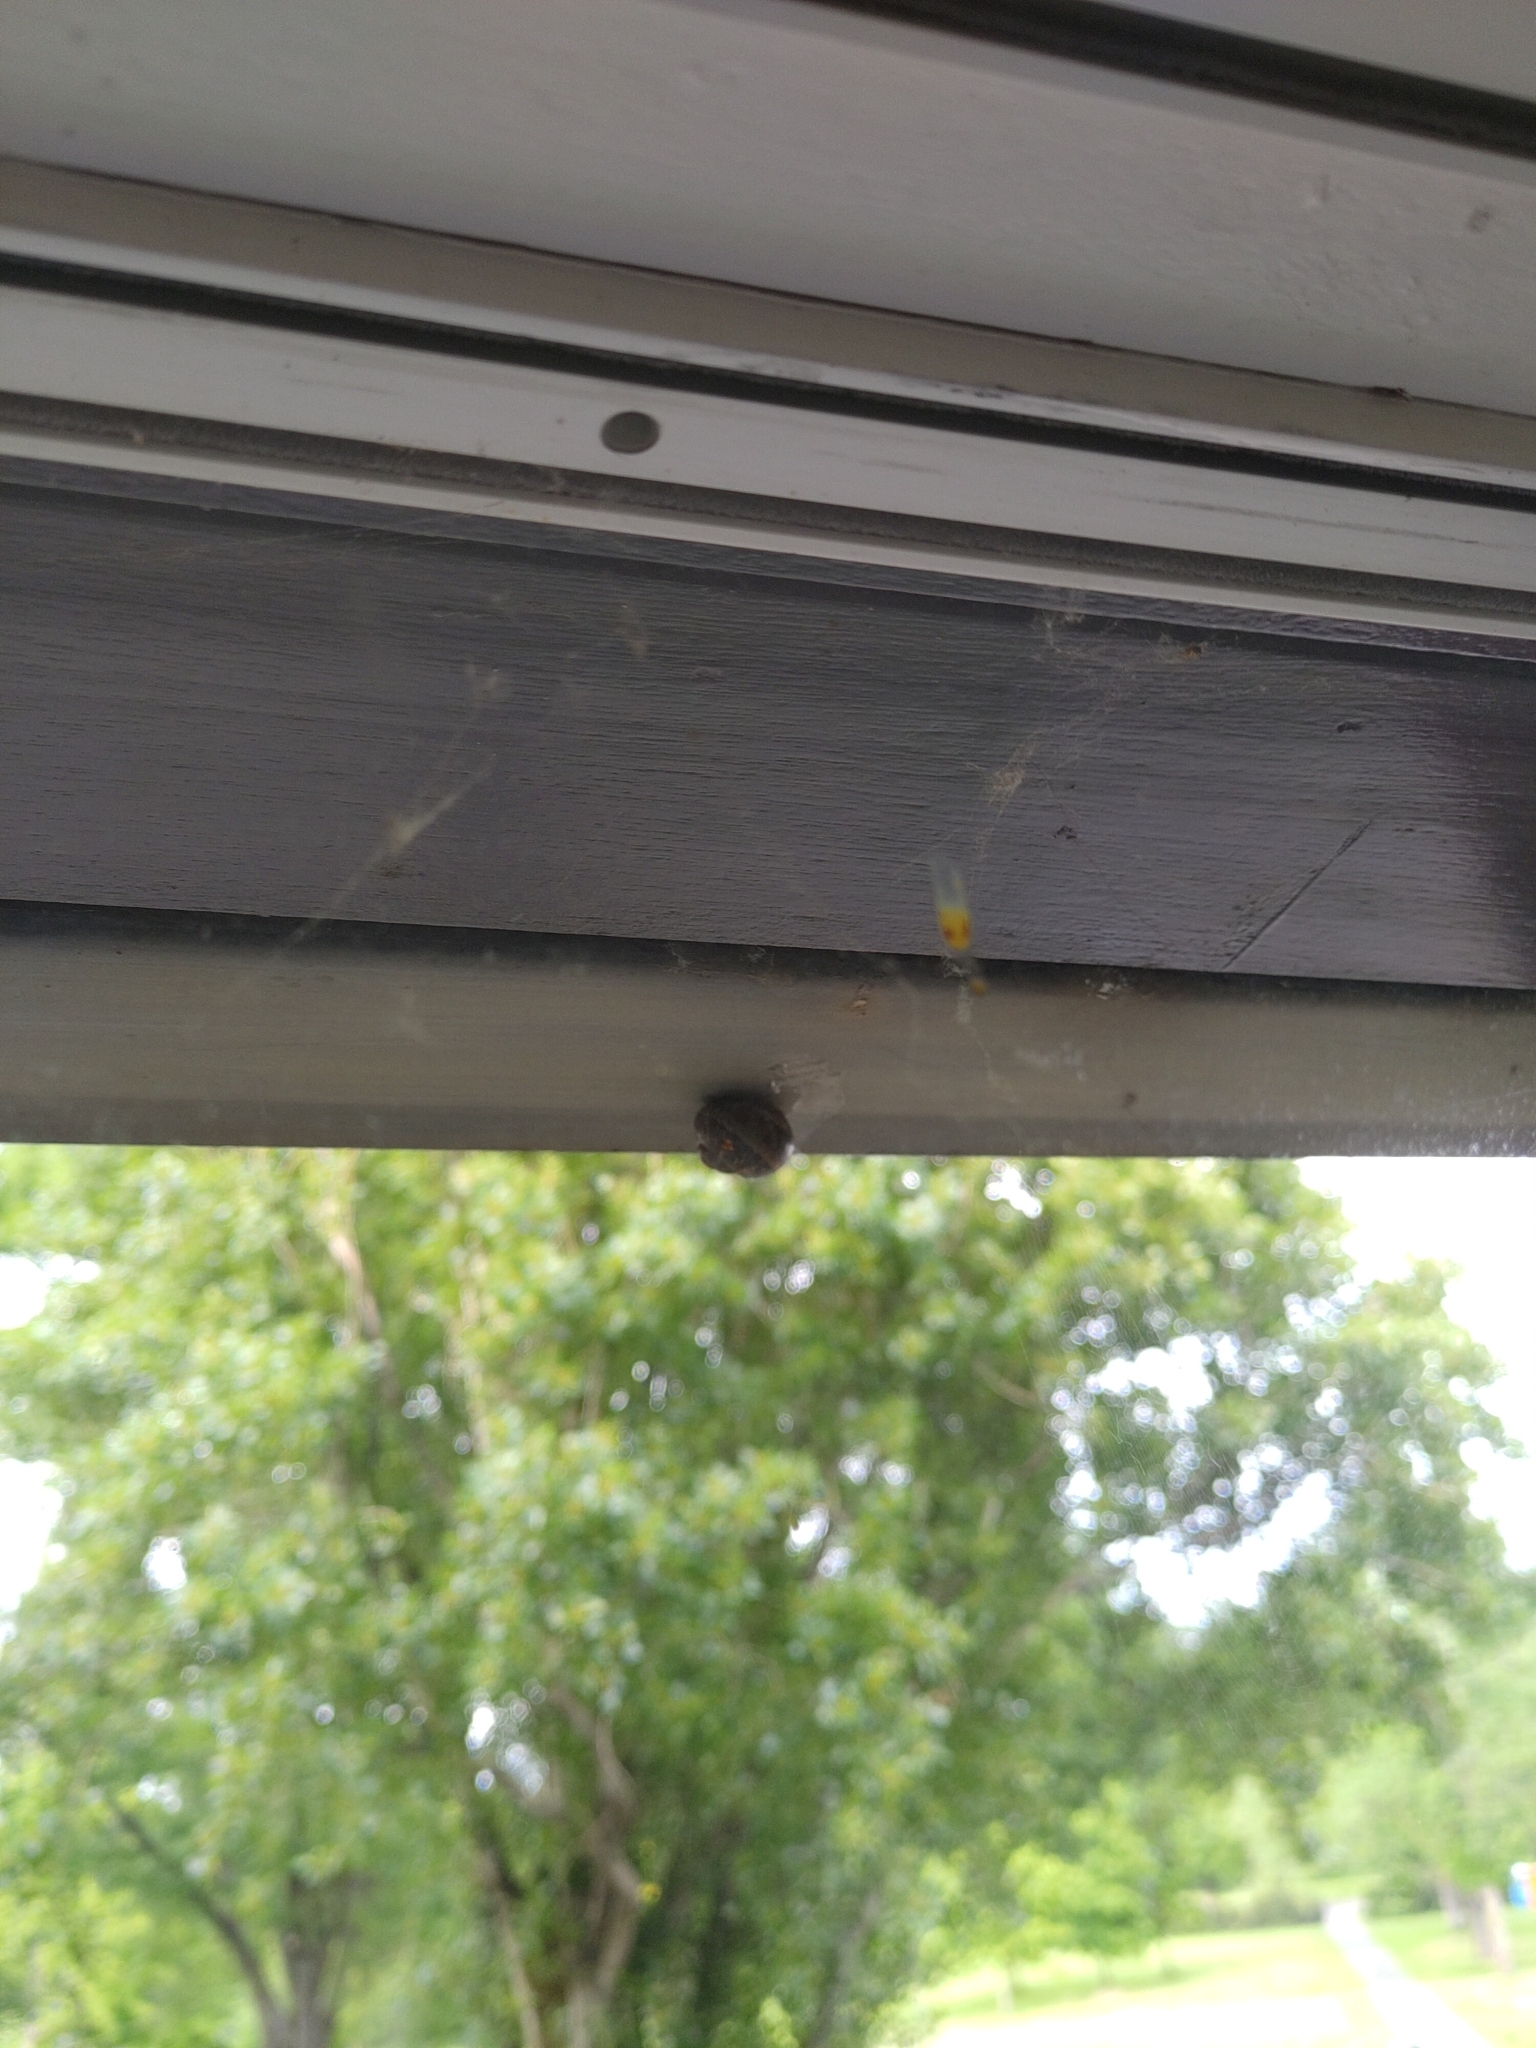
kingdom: Animalia
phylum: Mollusca
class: Gastropoda
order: Stylommatophora
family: Helicidae
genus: Cornu
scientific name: Cornu aspersum
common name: Brown garden snail
